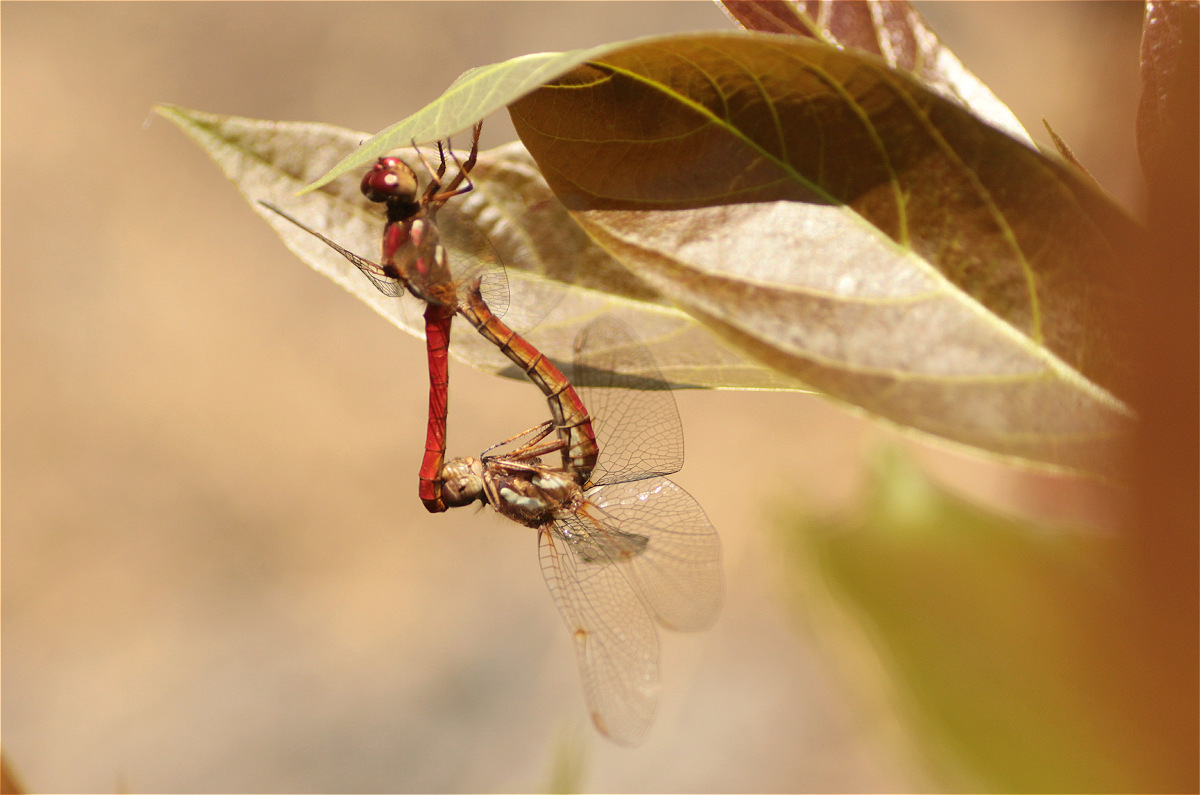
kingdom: Animalia
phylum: Arthropoda
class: Insecta
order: Odonata
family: Libellulidae
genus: Sympetrum
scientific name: Sympetrum gilvum
